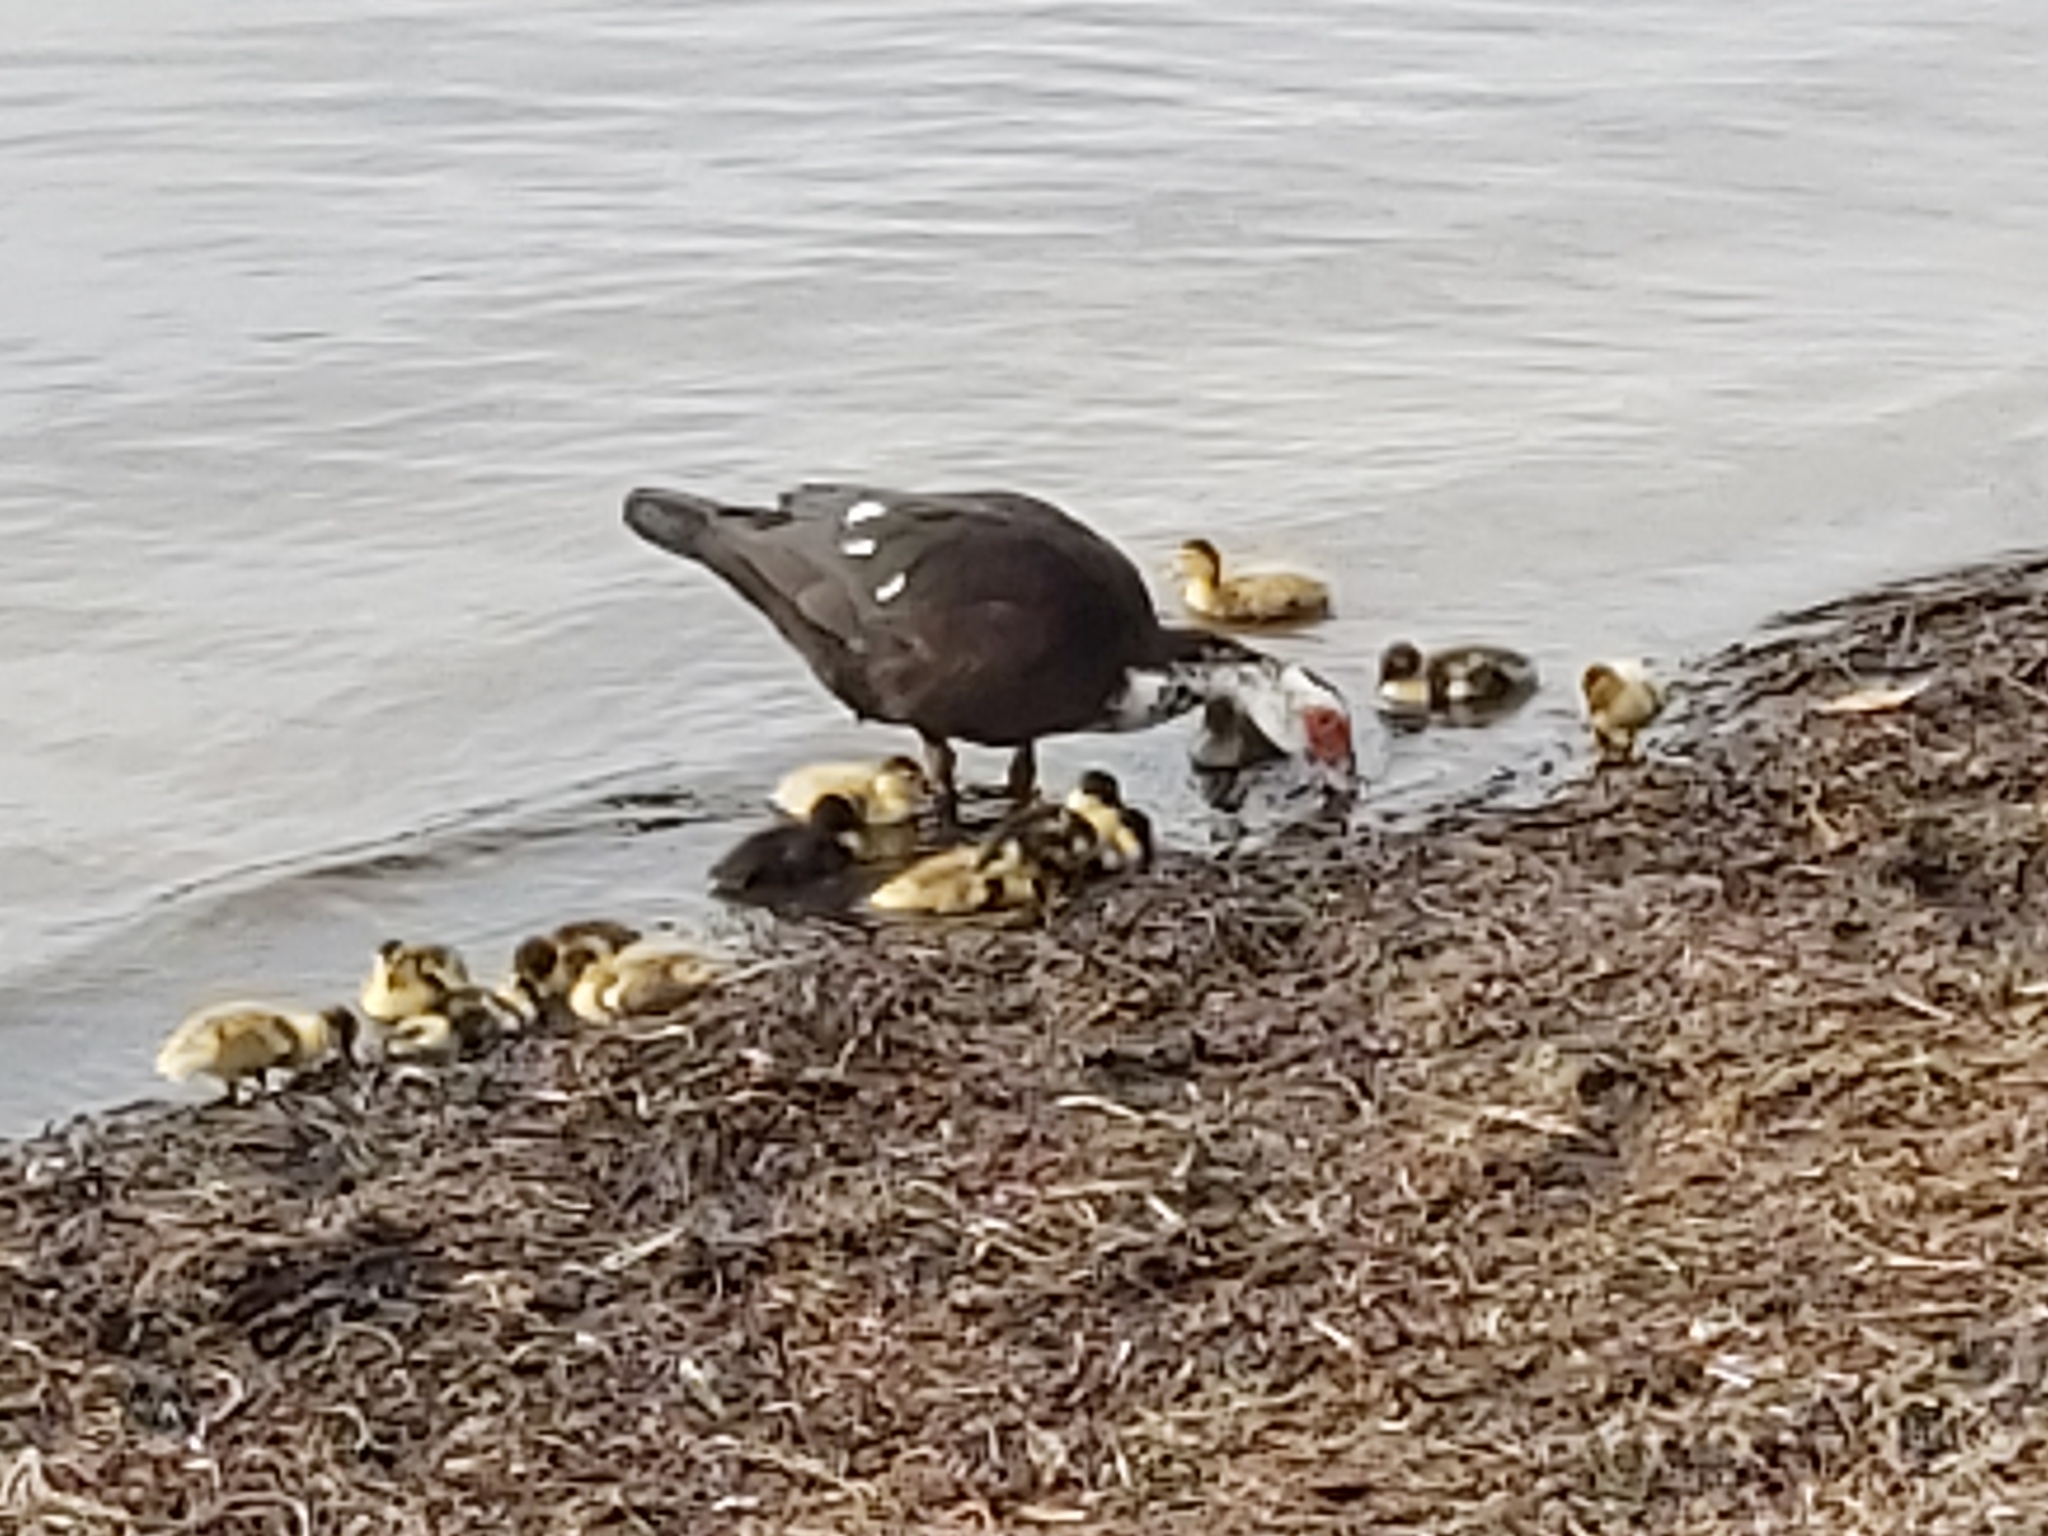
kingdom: Animalia
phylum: Chordata
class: Aves
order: Anseriformes
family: Anatidae
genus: Cairina
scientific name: Cairina moschata
